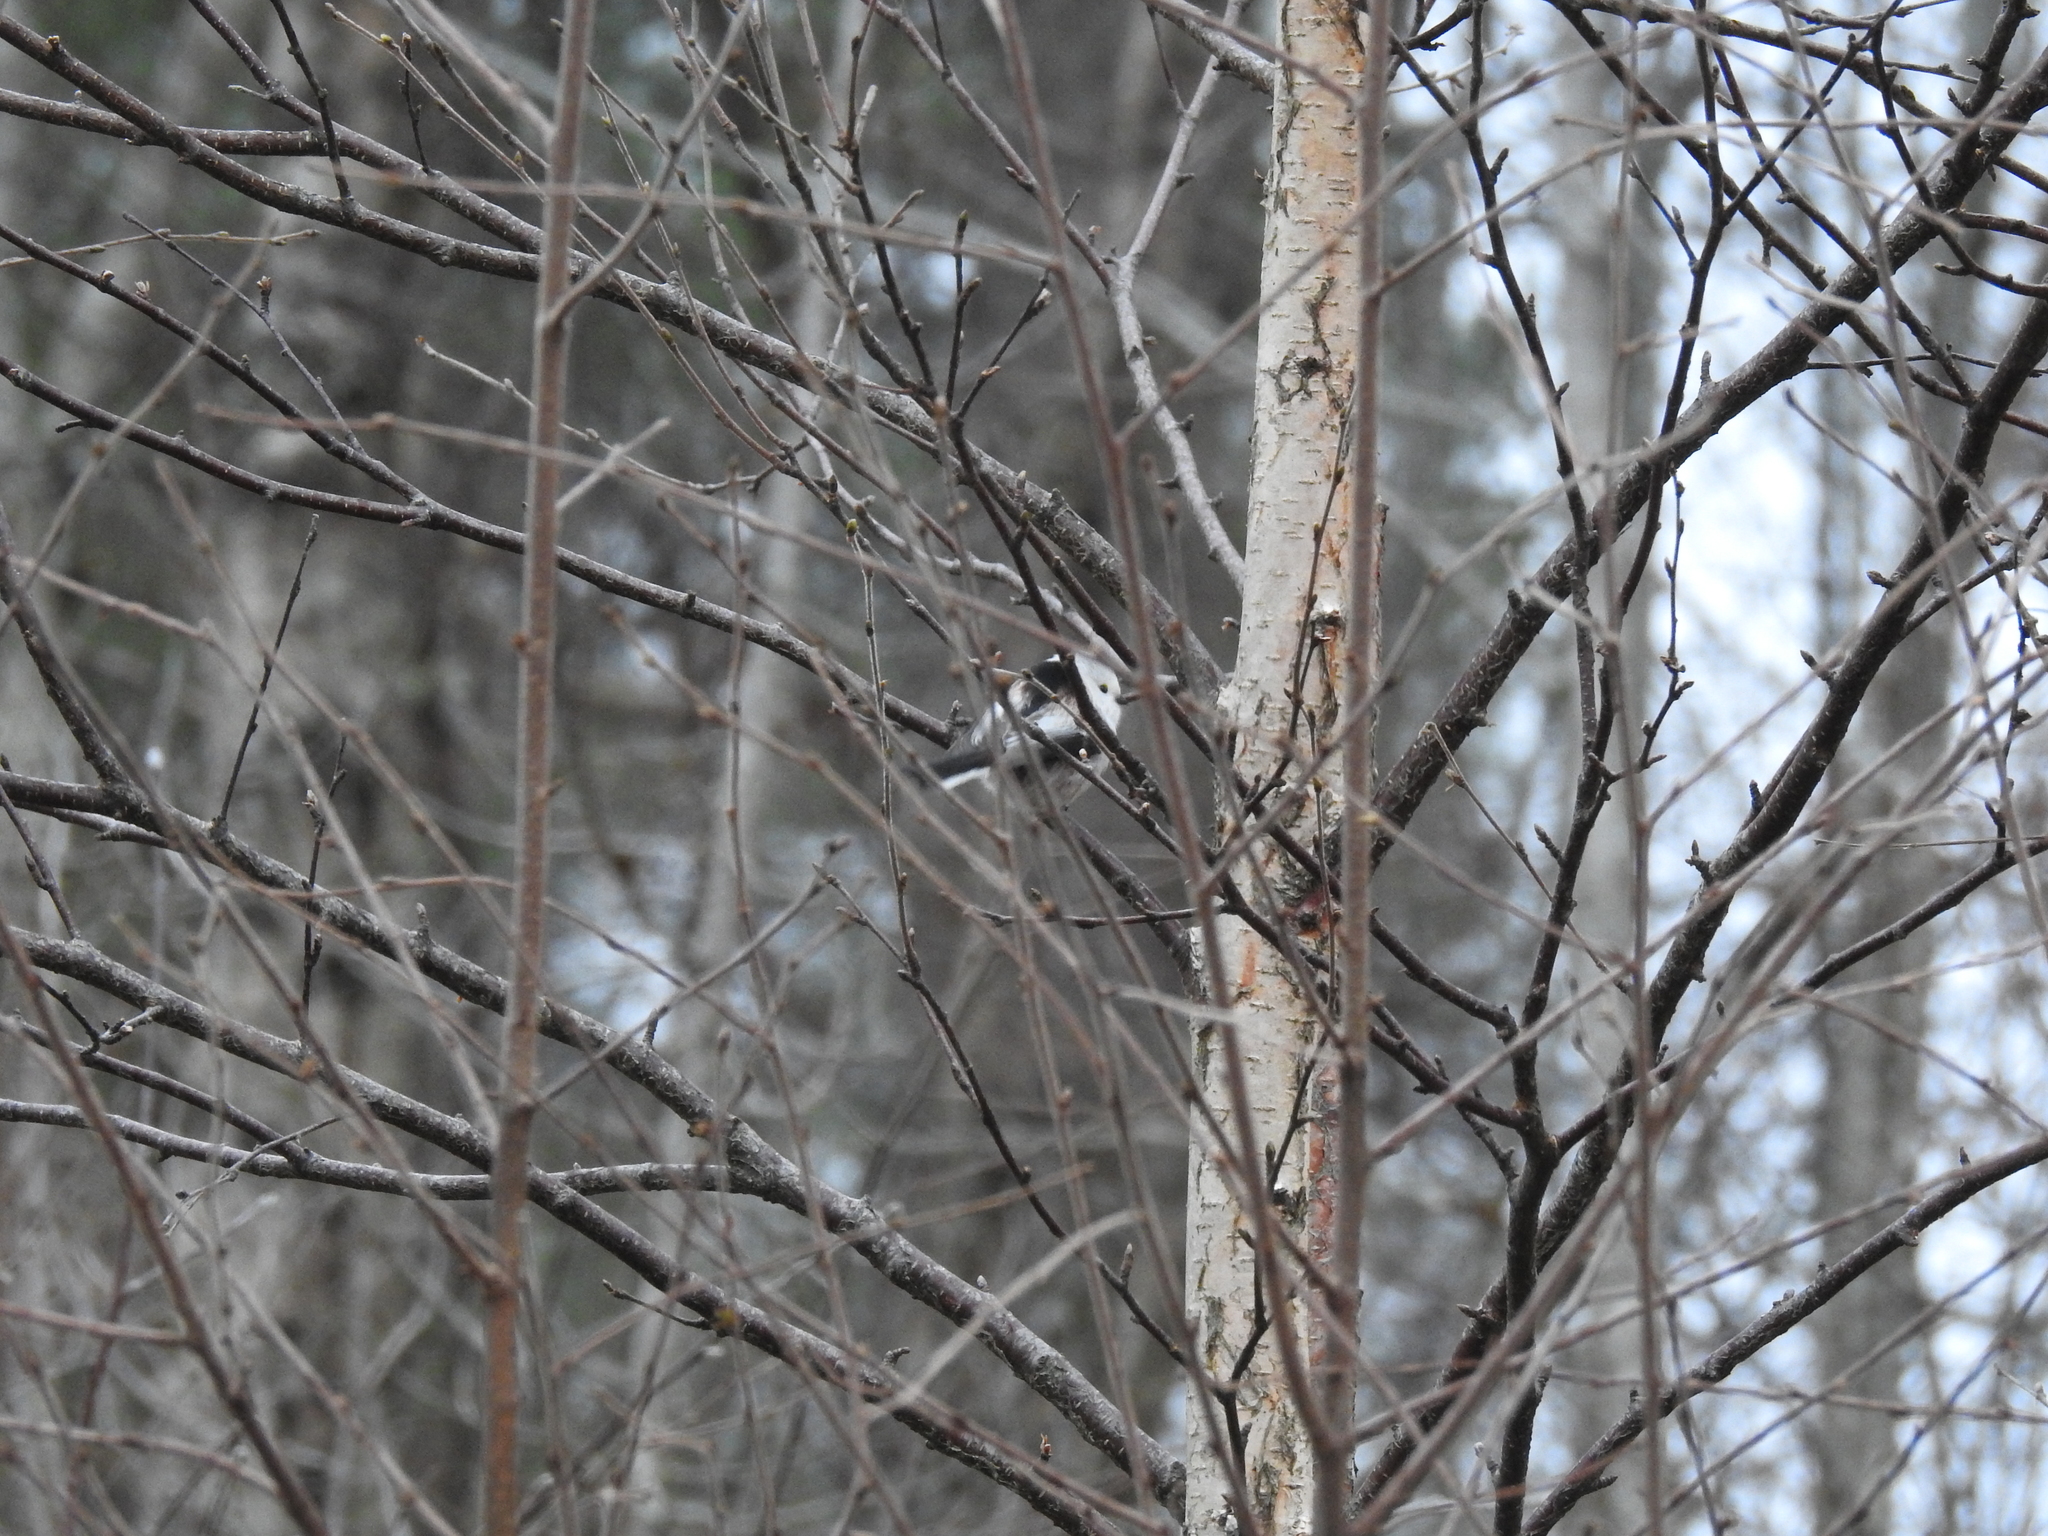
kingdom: Animalia
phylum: Chordata
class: Aves
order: Passeriformes
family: Aegithalidae
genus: Aegithalos
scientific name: Aegithalos caudatus
